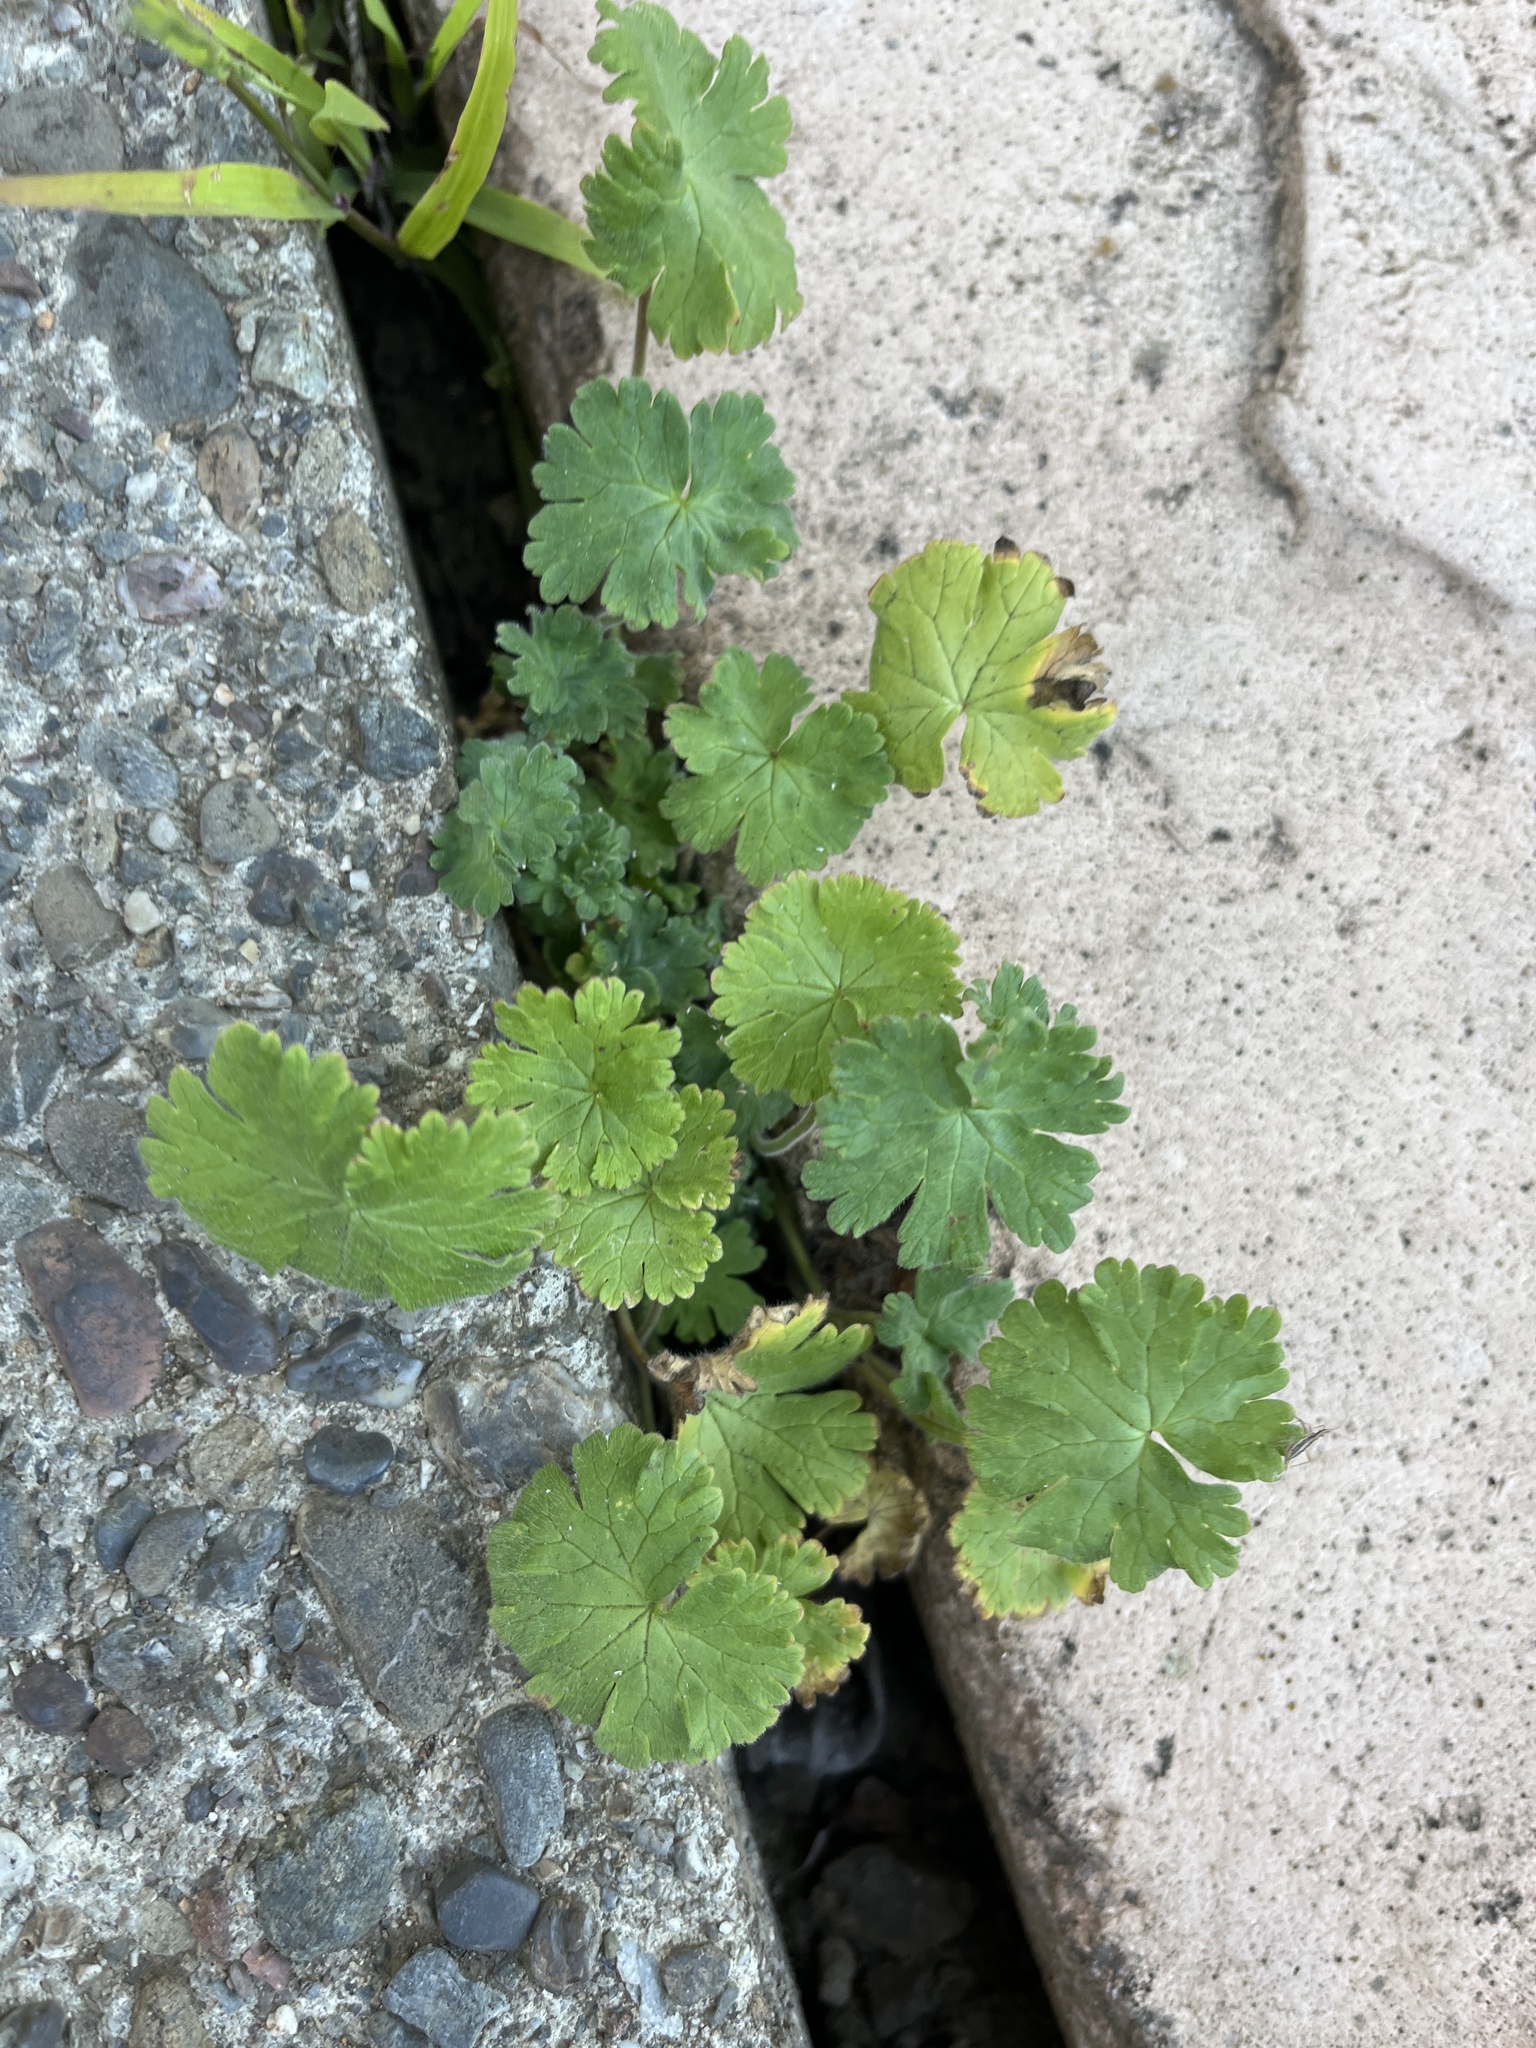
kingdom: Plantae
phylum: Tracheophyta
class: Magnoliopsida
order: Geraniales
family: Geraniaceae
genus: Geranium
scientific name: Geranium
